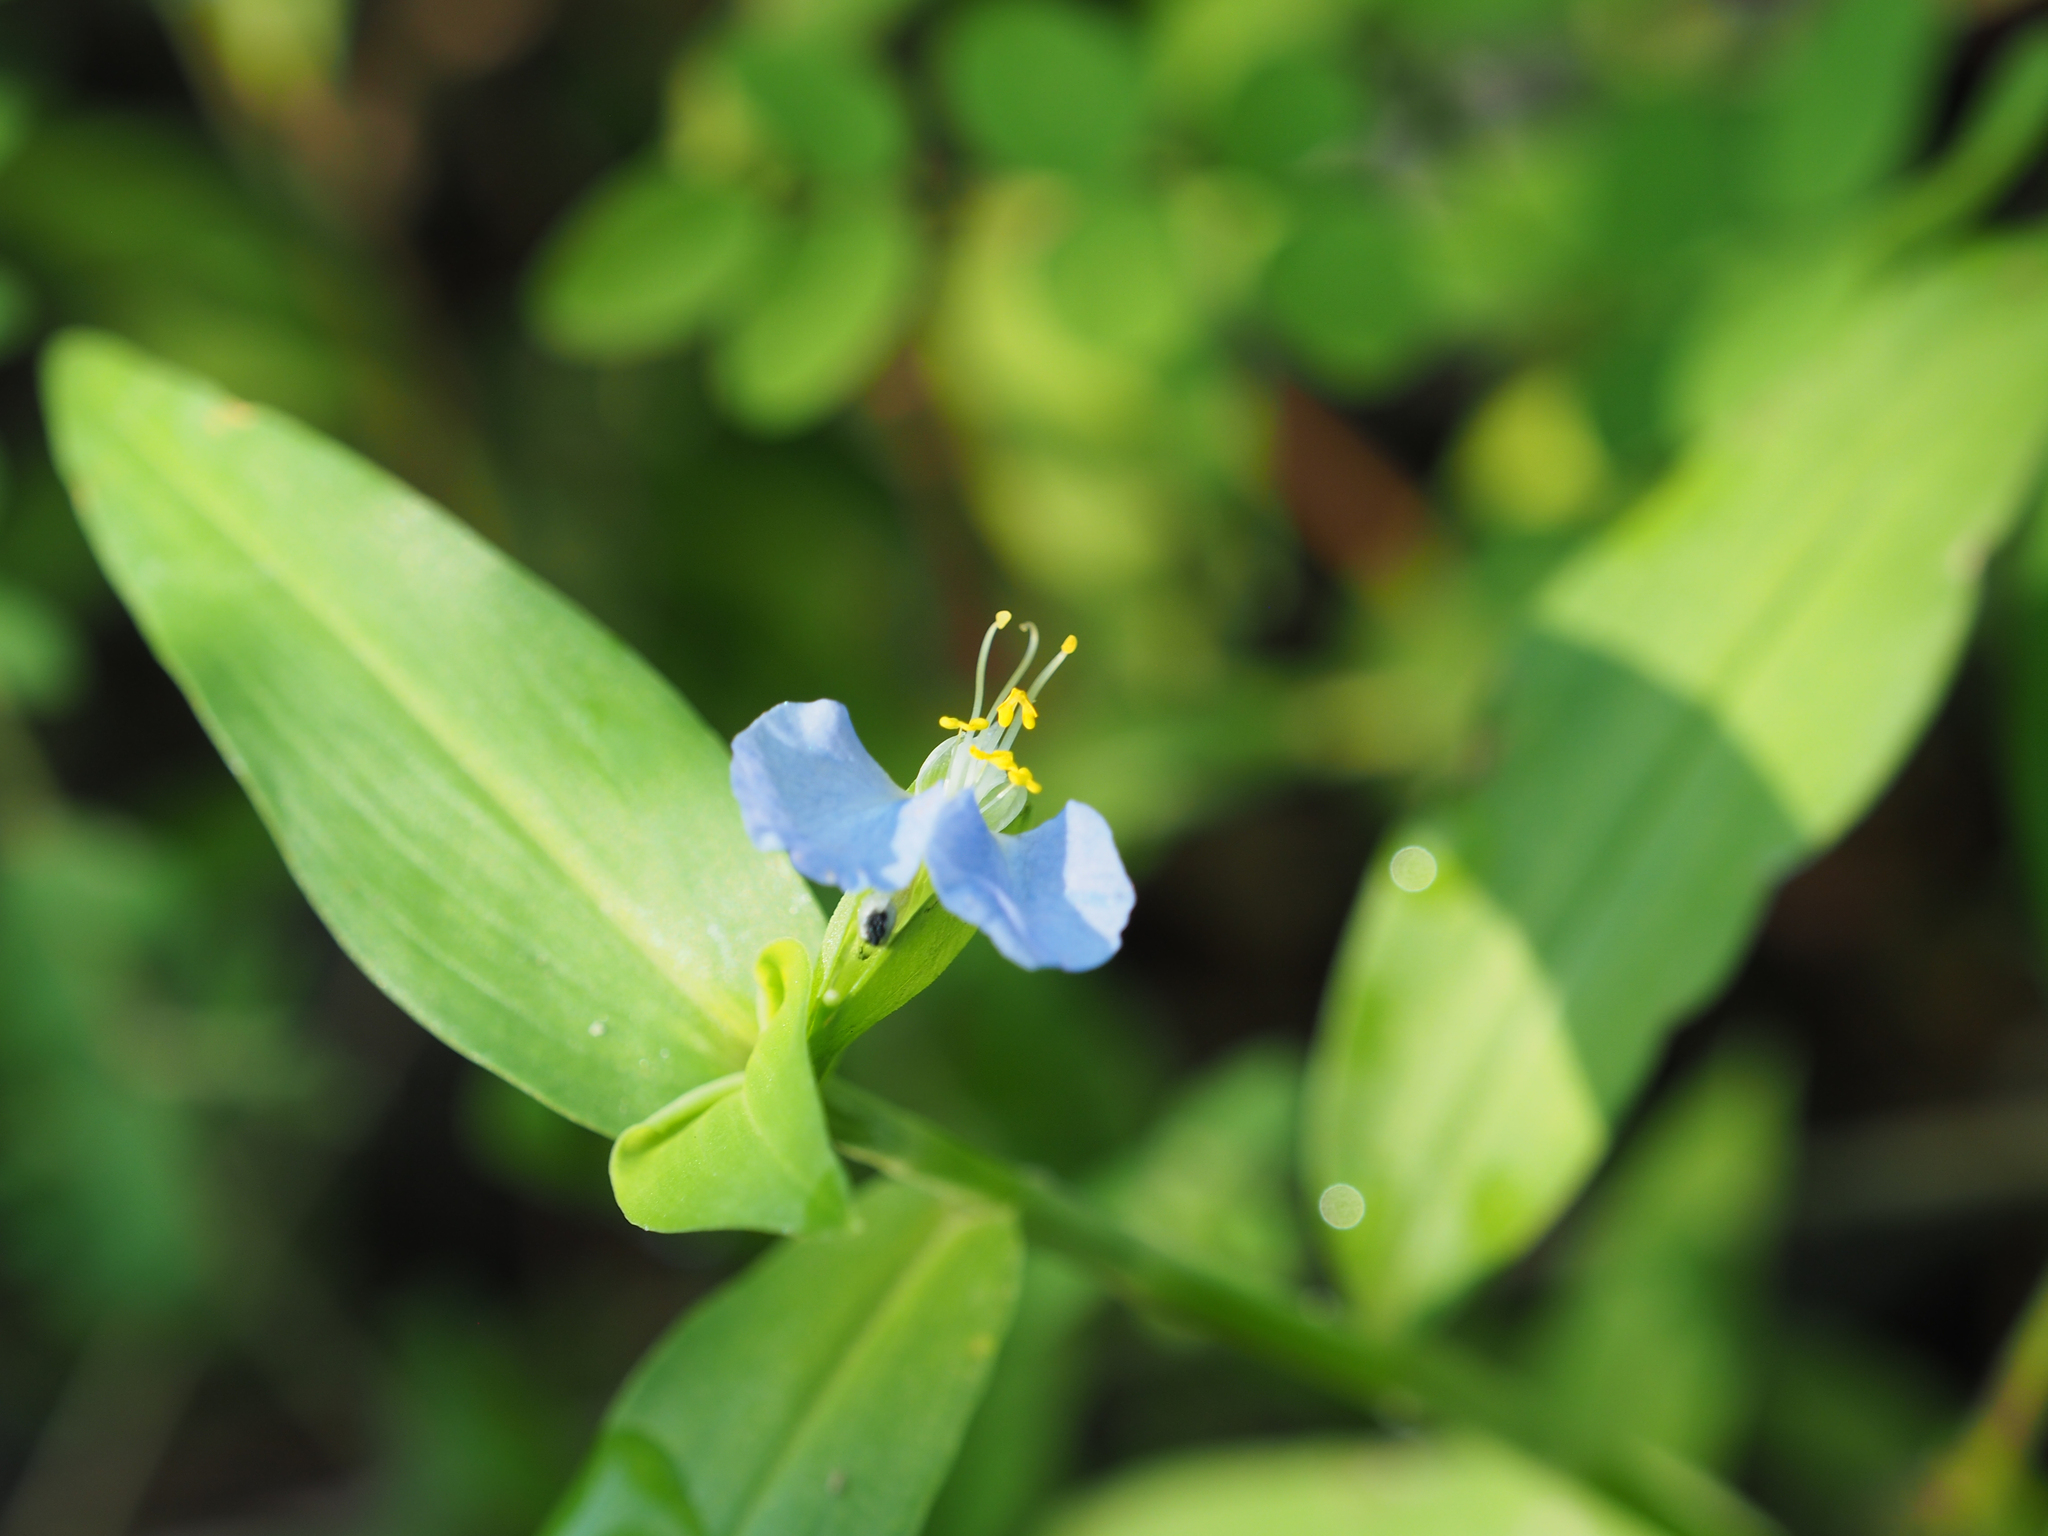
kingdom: Plantae
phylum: Tracheophyta
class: Liliopsida
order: Commelinales
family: Commelinaceae
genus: Commelina
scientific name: Commelina communis
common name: Asiatic dayflower
